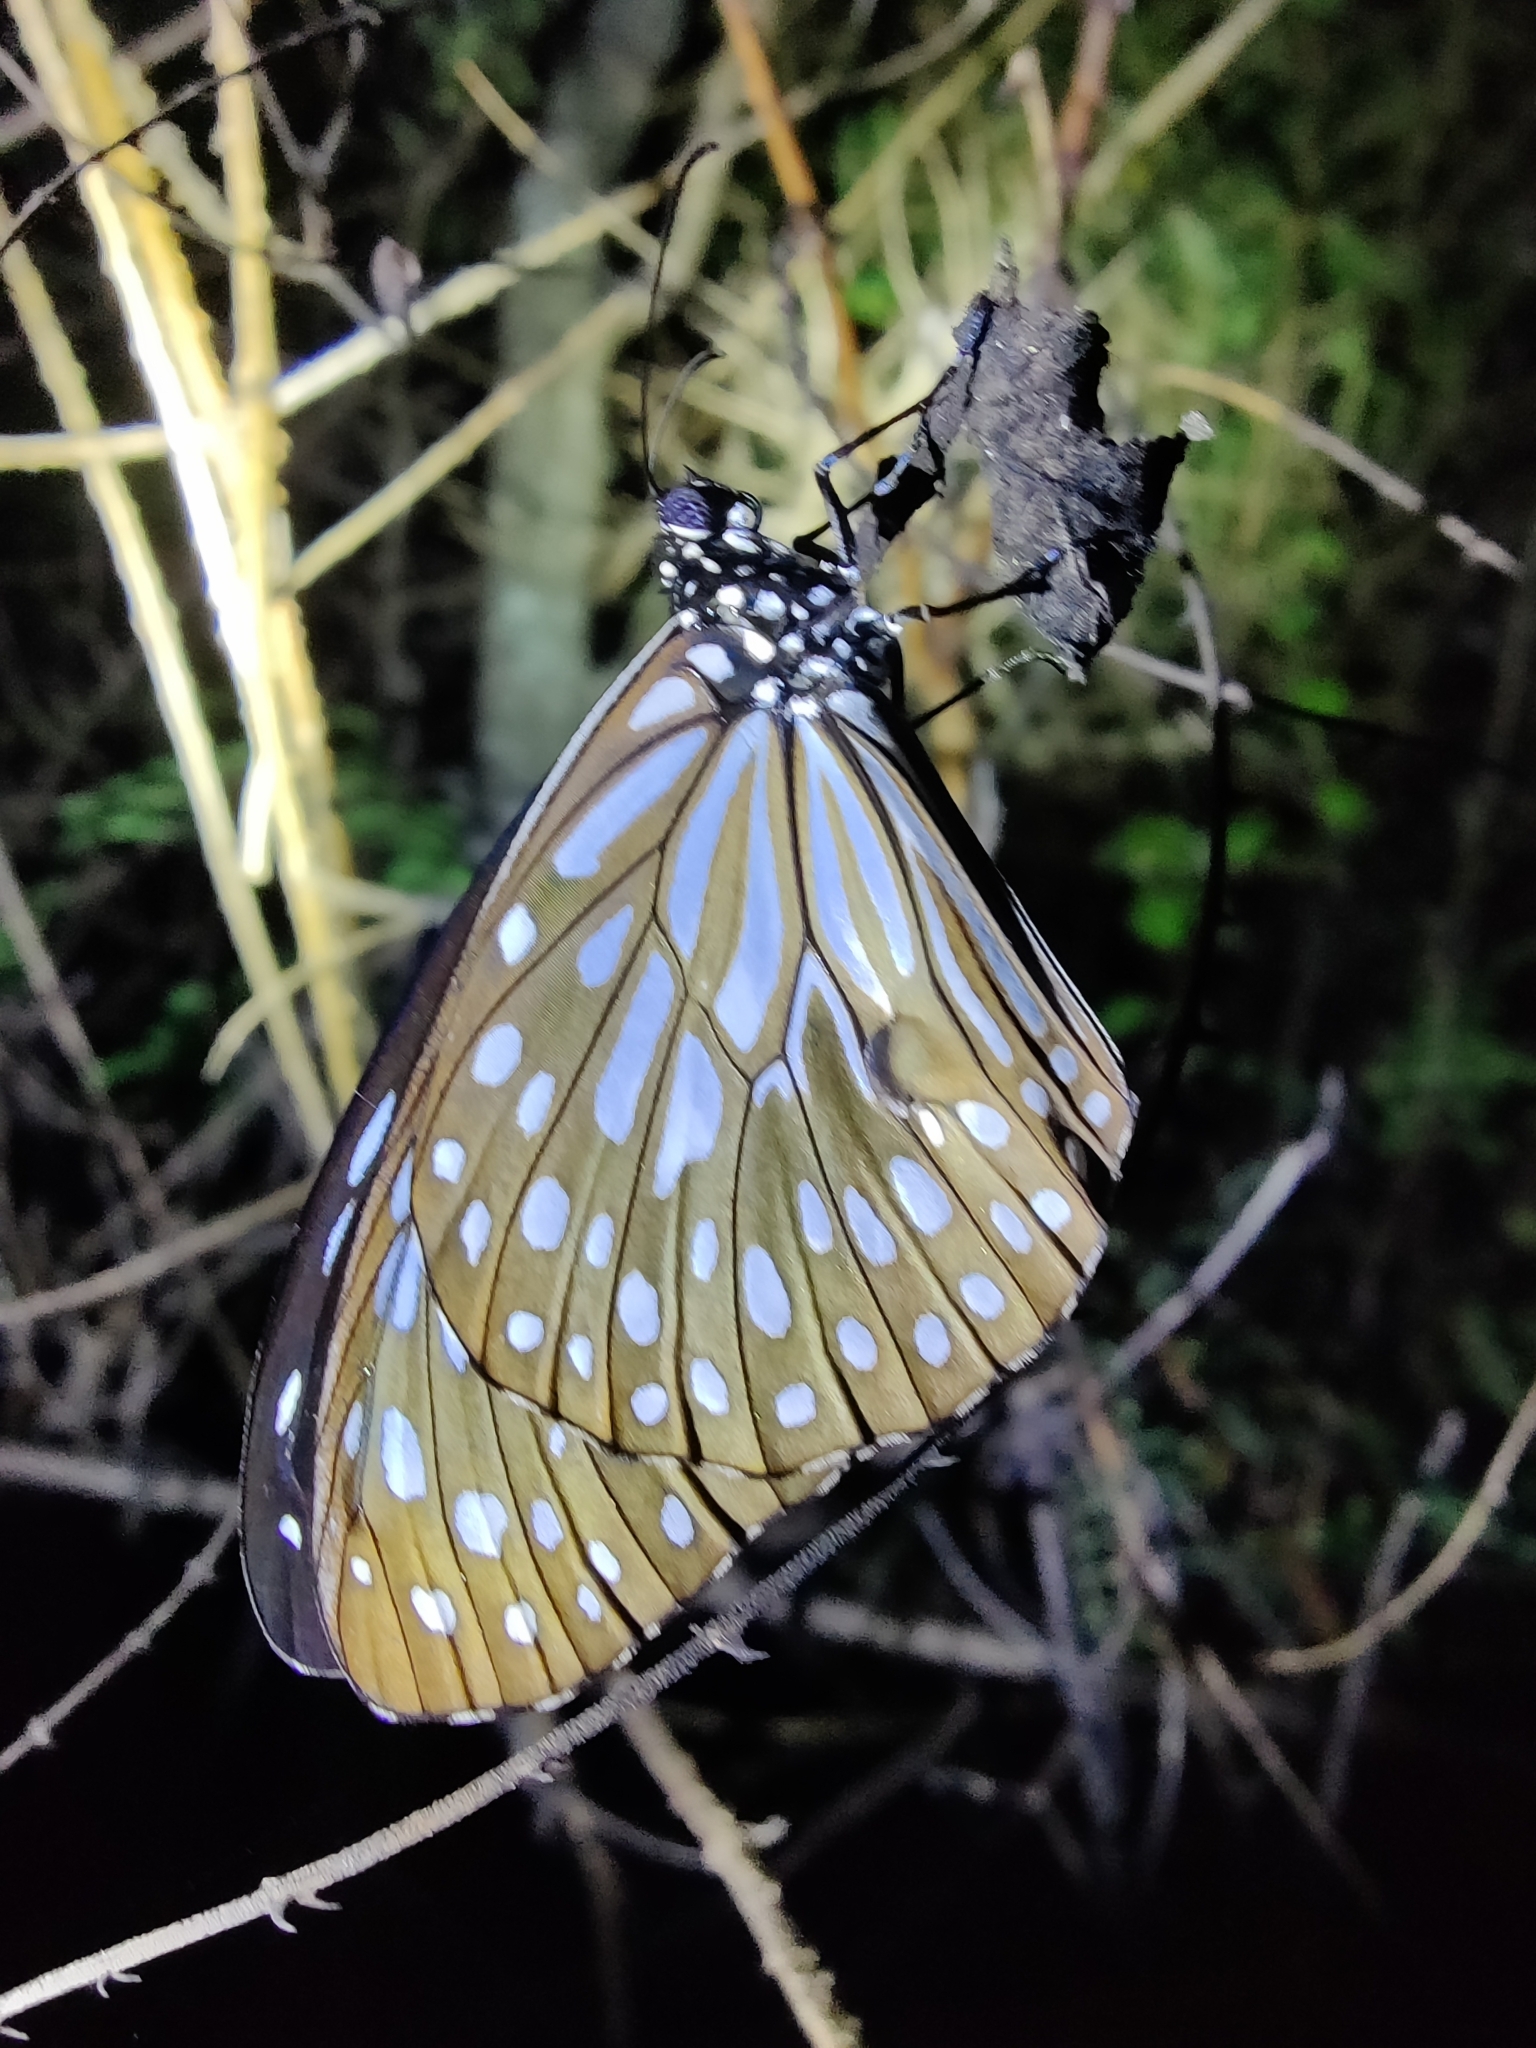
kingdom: Animalia
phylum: Arthropoda
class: Insecta
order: Lepidoptera
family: Nymphalidae
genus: Tirumala
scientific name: Tirumala septentrionis
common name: Dark blue tiger butterfly
